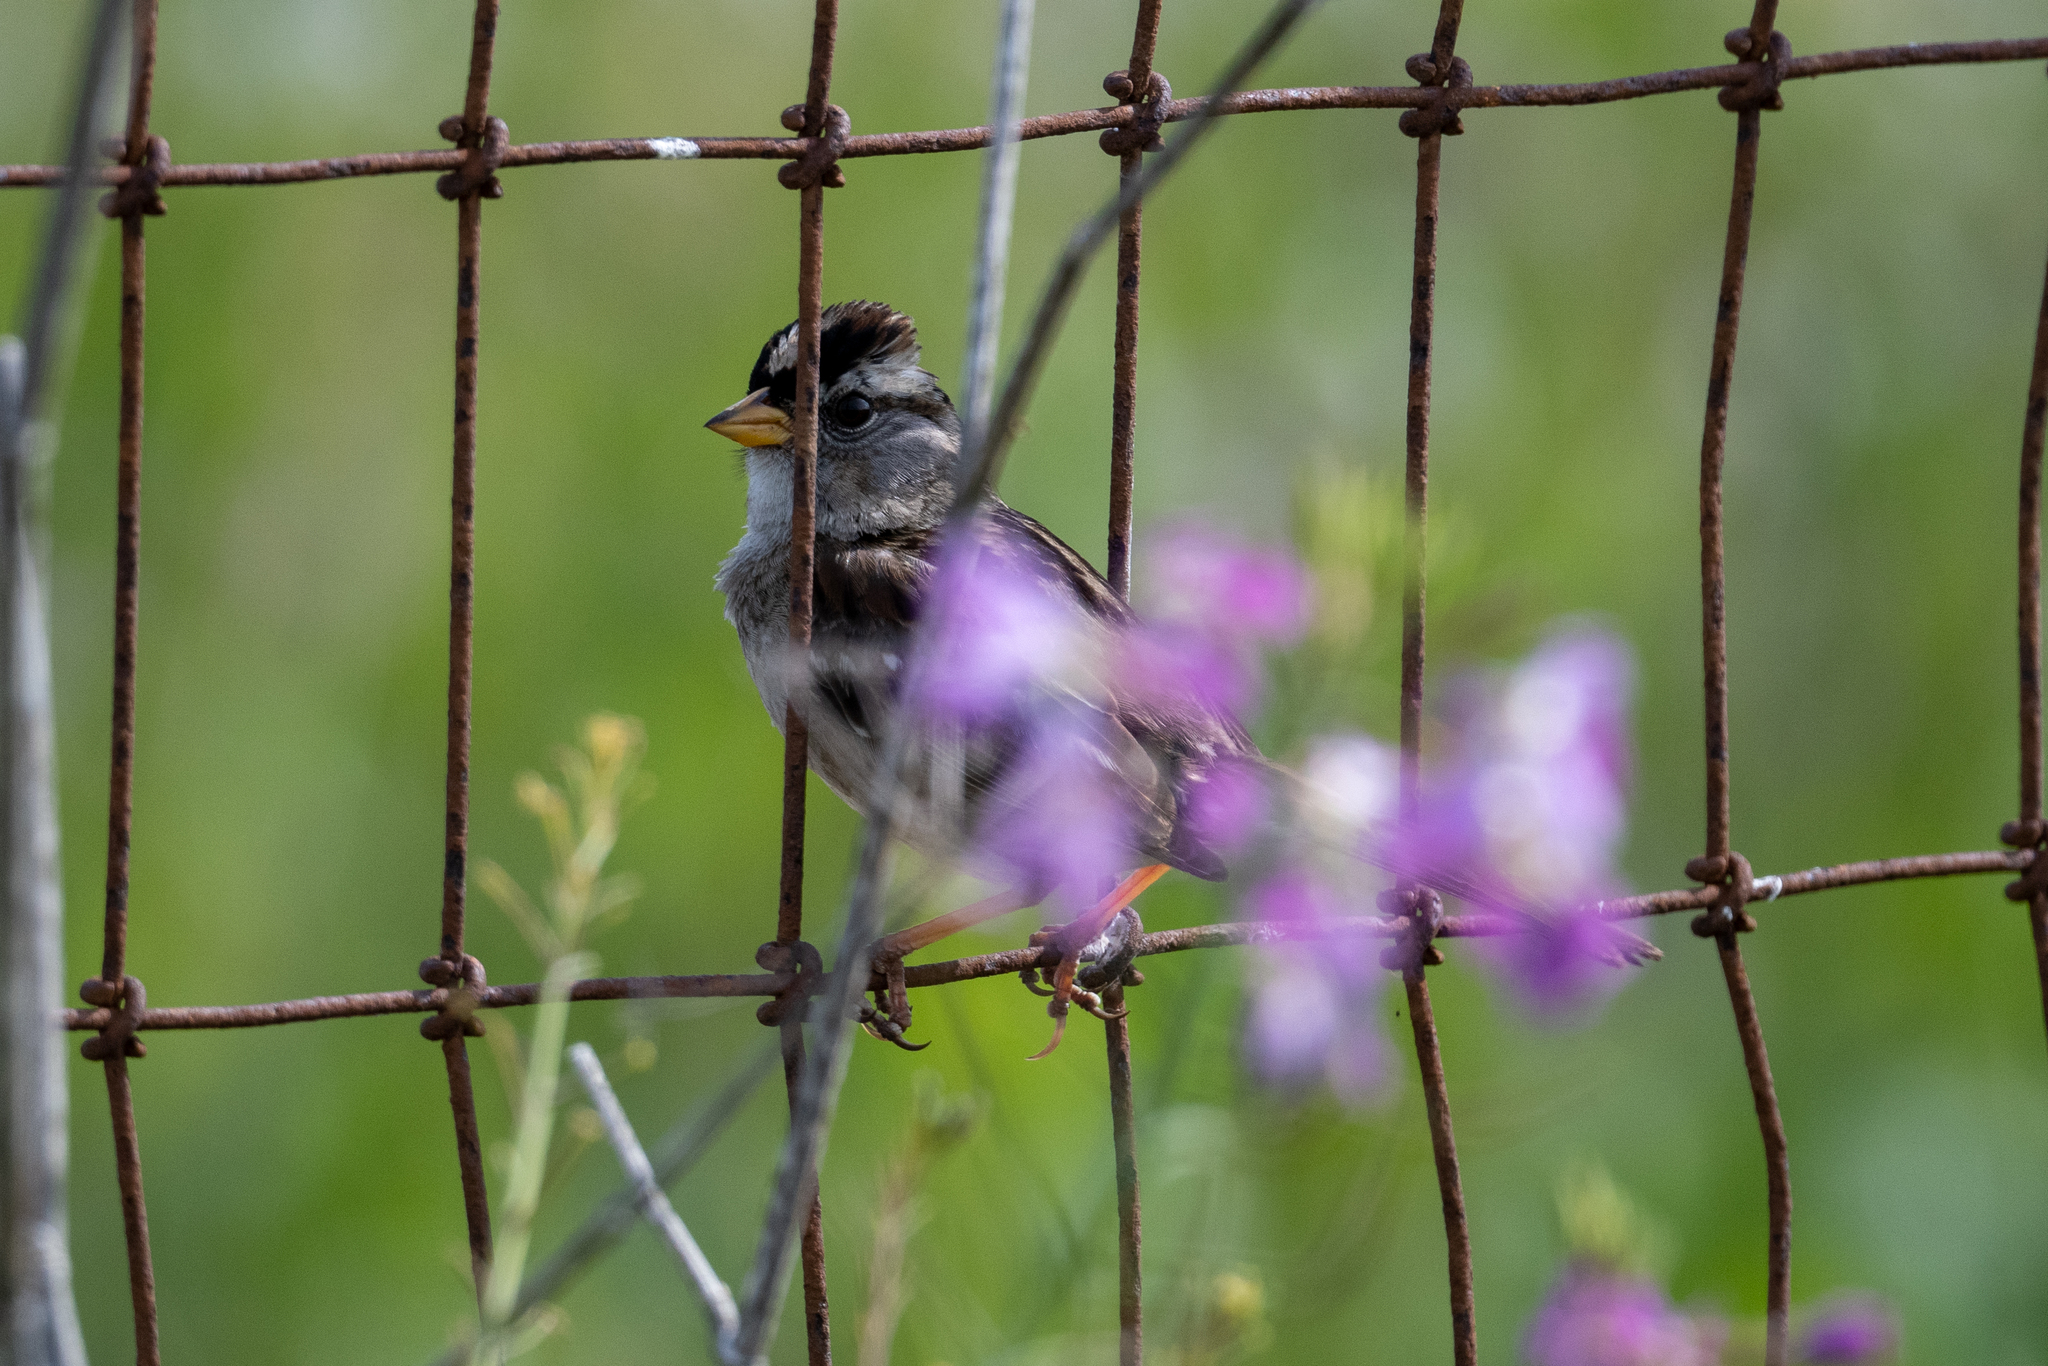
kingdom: Animalia
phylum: Chordata
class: Aves
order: Passeriformes
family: Passerellidae
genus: Zonotrichia
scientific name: Zonotrichia leucophrys
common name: White-crowned sparrow
